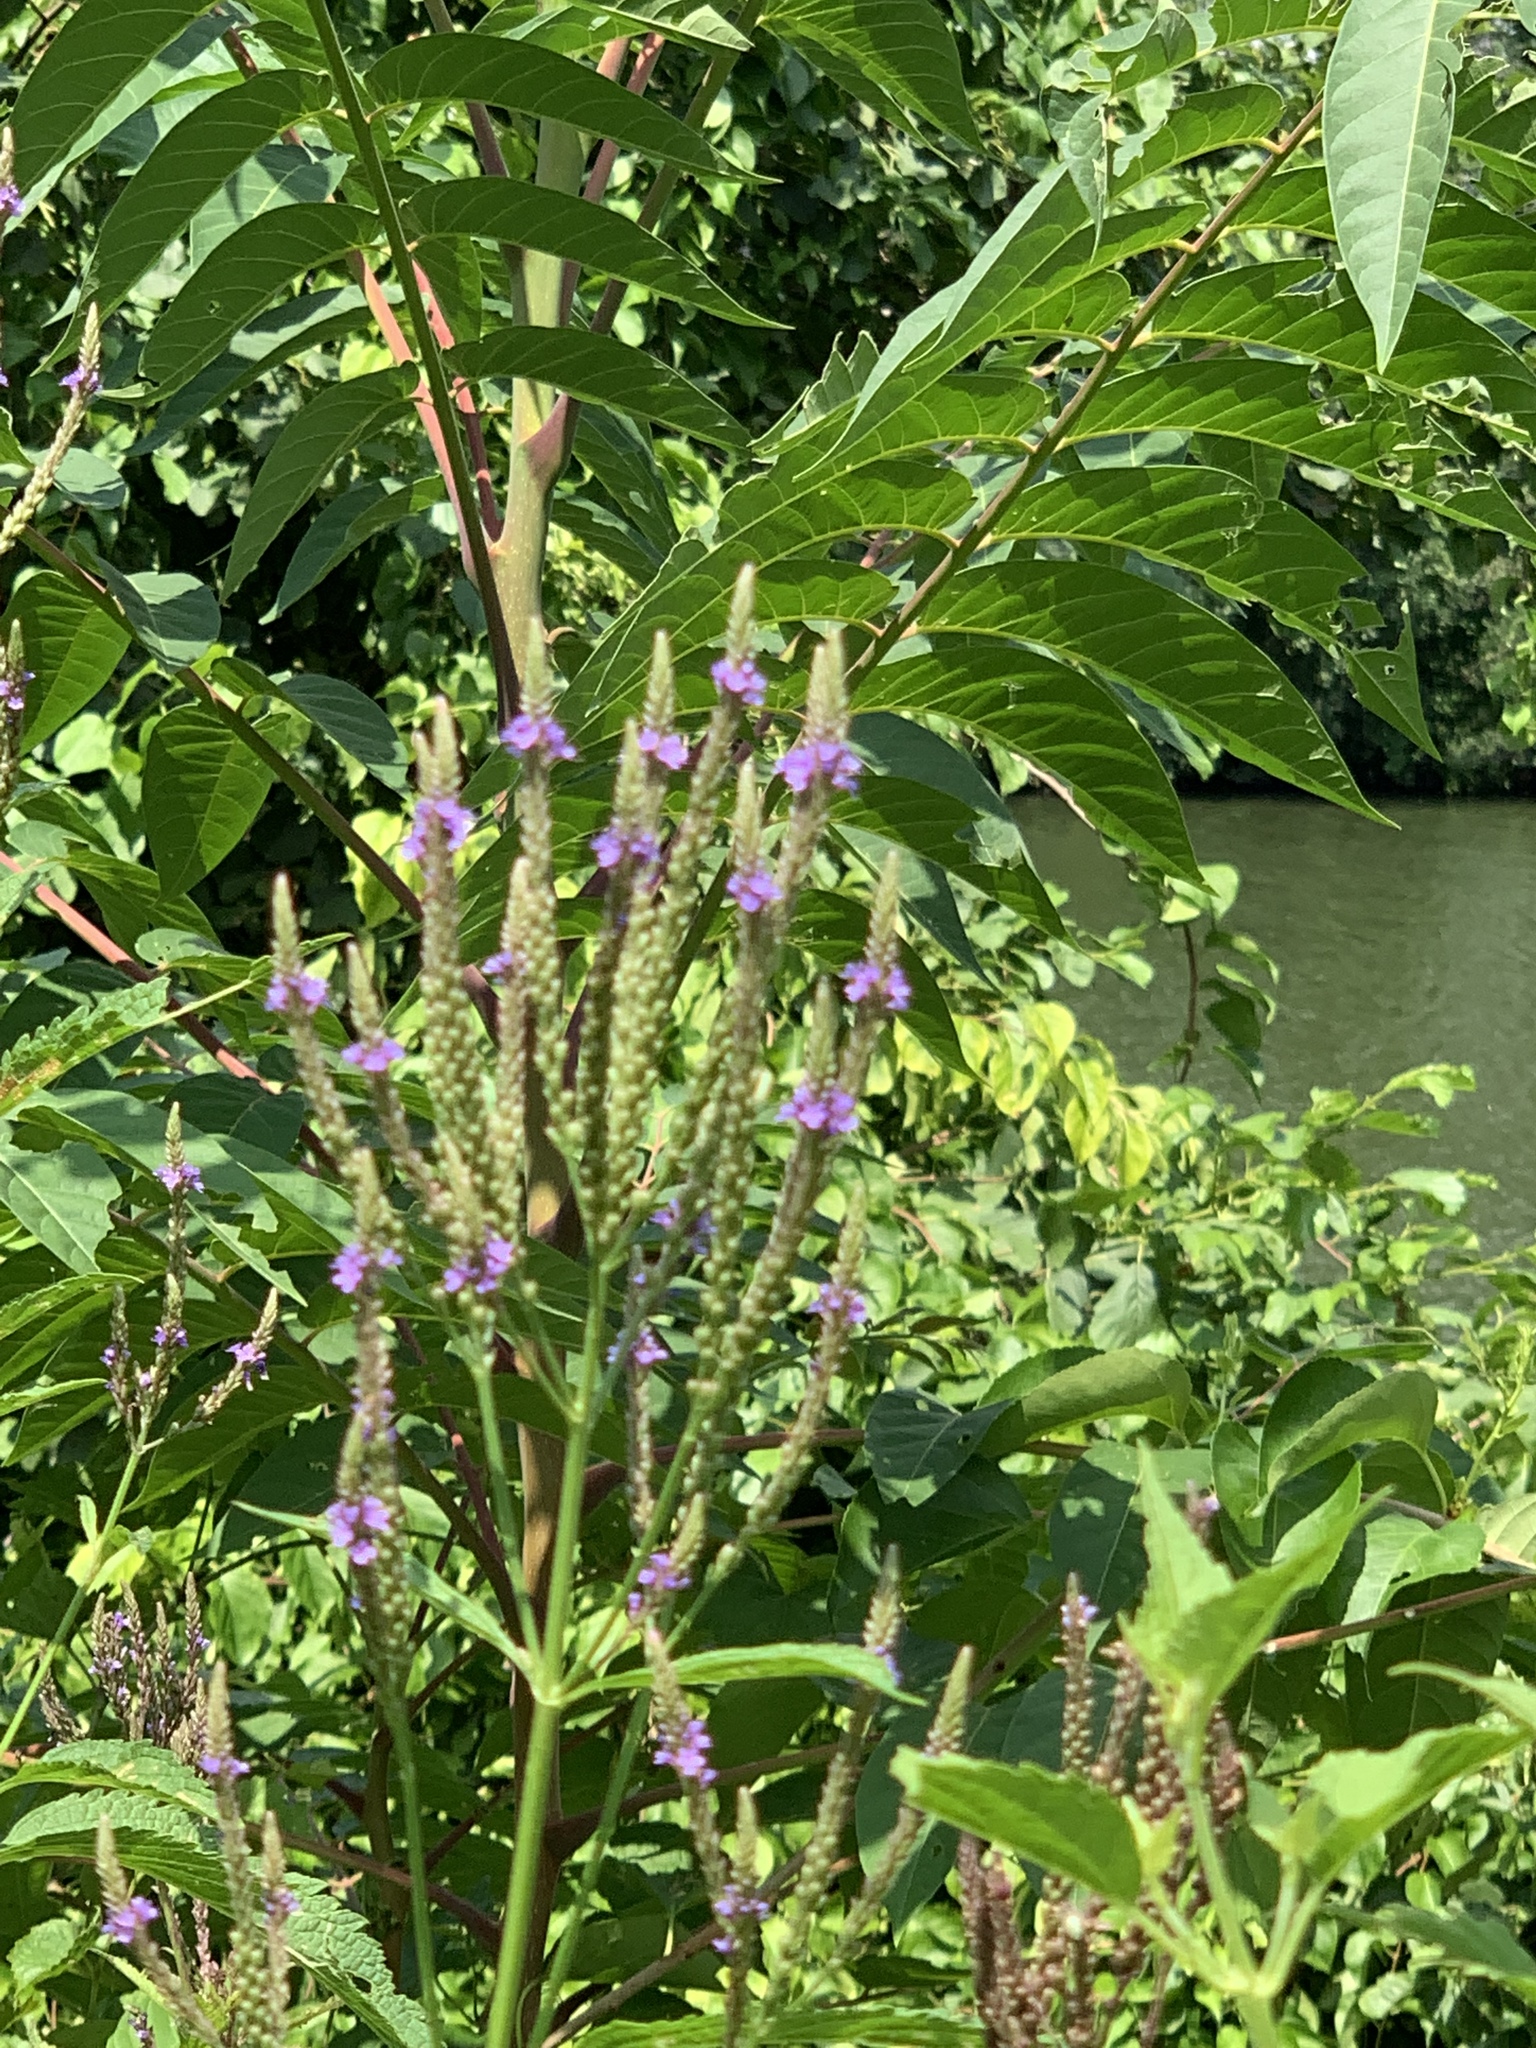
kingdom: Plantae
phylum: Tracheophyta
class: Magnoliopsida
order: Lamiales
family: Verbenaceae
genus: Verbena
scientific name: Verbena hastata
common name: American blue vervain
